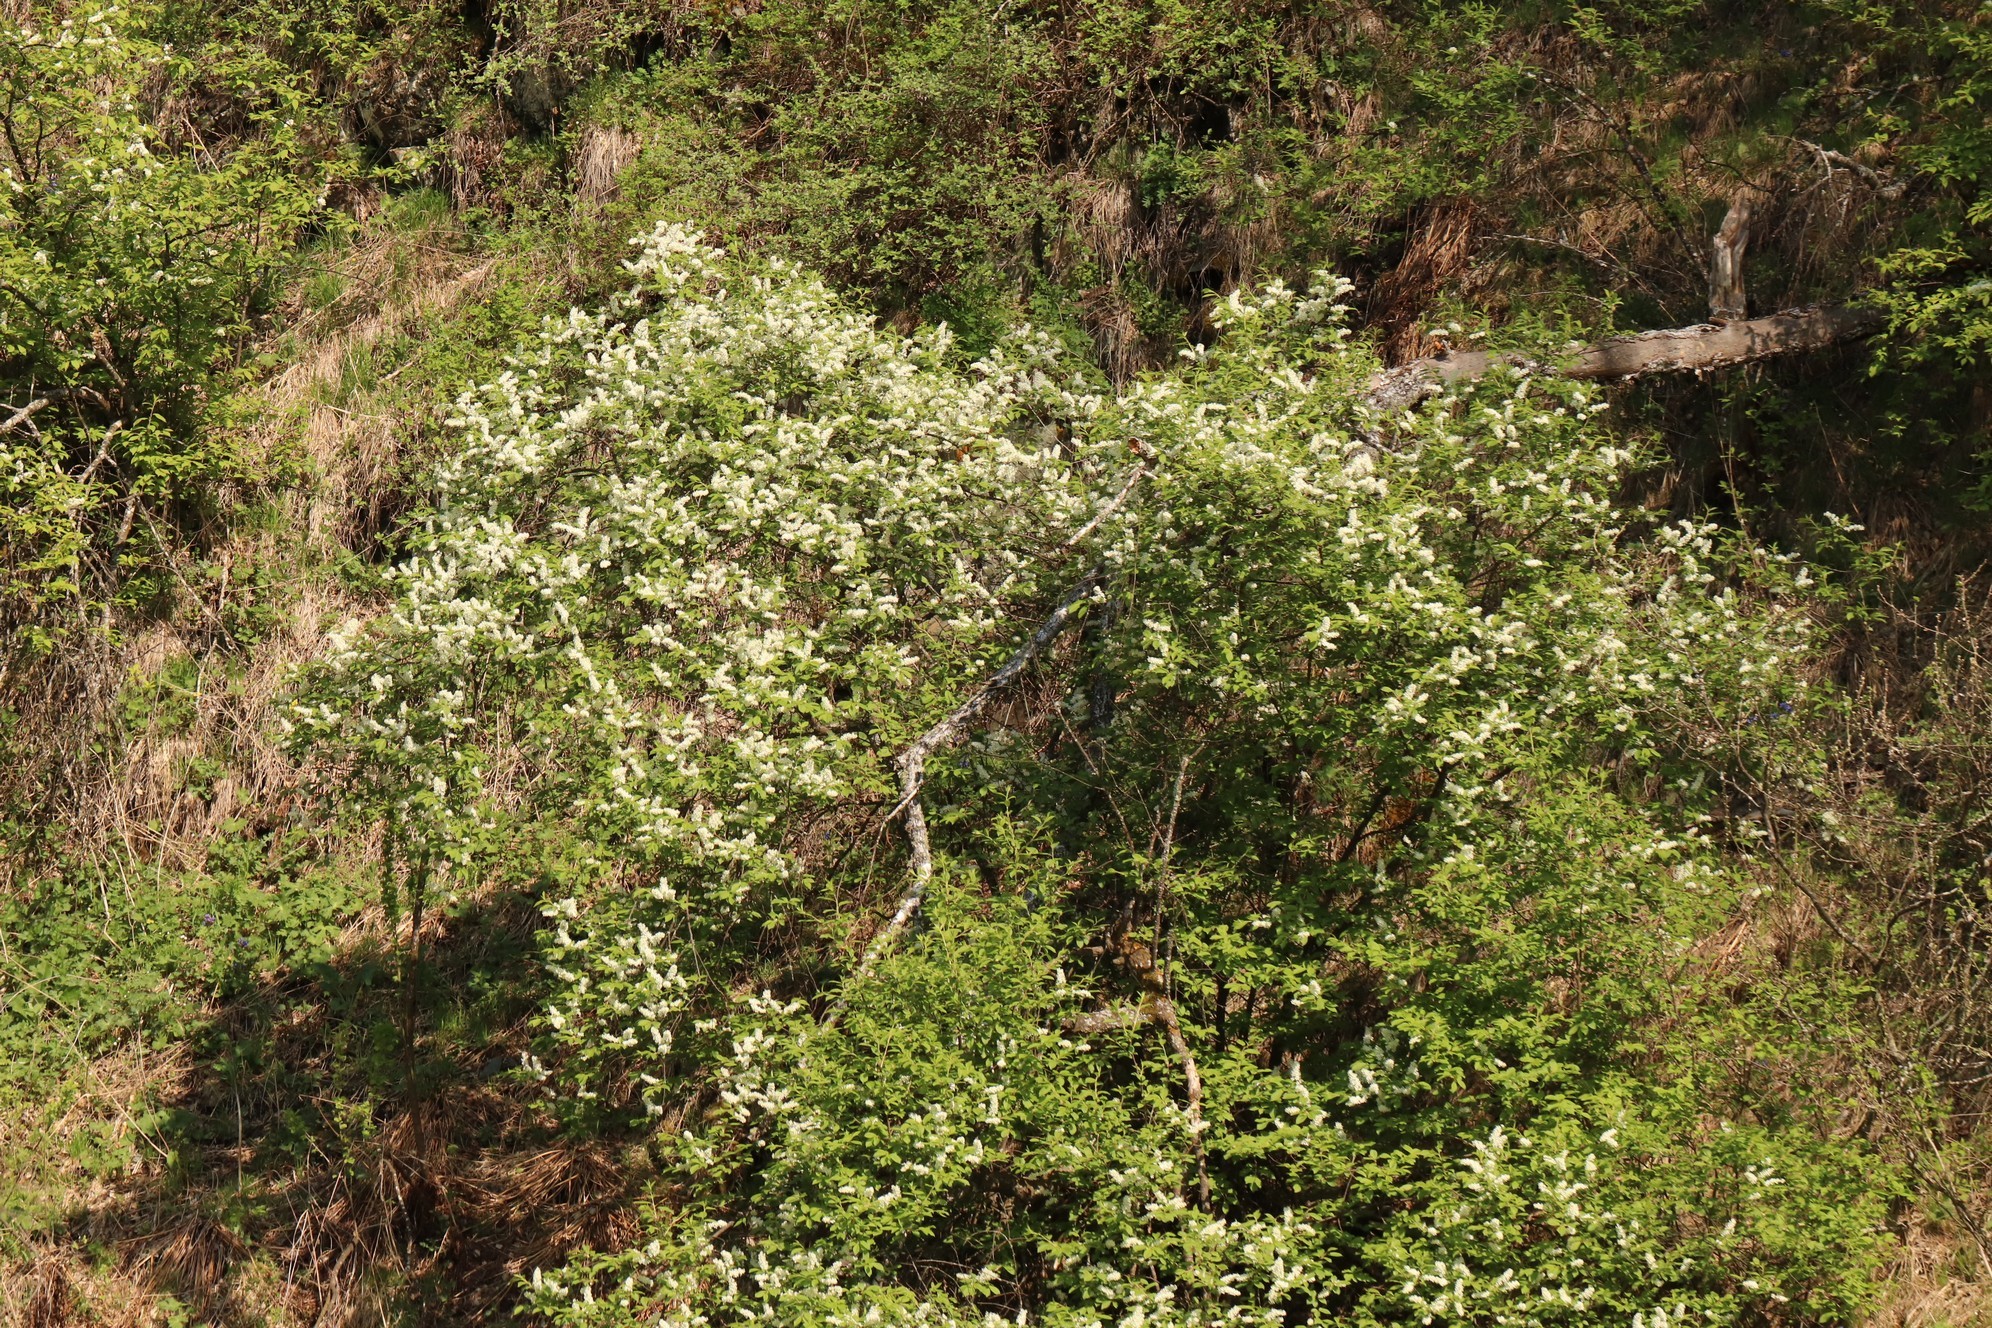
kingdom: Plantae
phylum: Tracheophyta
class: Magnoliopsida
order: Rosales
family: Rosaceae
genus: Prunus
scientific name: Prunus padus
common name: Bird cherry
